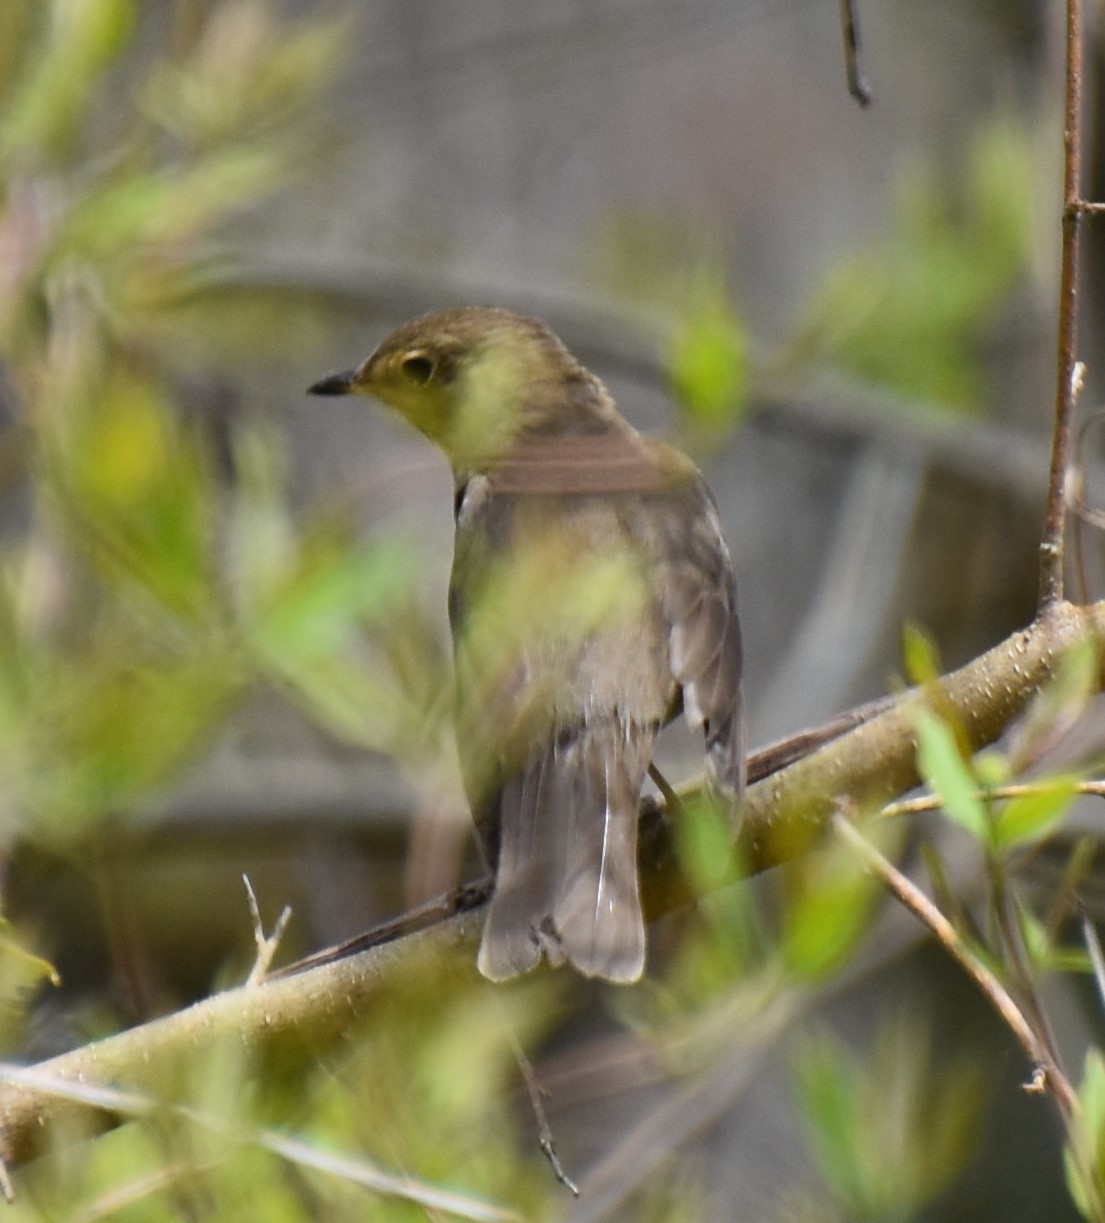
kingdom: Animalia
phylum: Chordata
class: Aves
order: Passeriformes
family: Turdidae
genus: Catharus
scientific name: Catharus ustulatus
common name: Swainson's thrush
